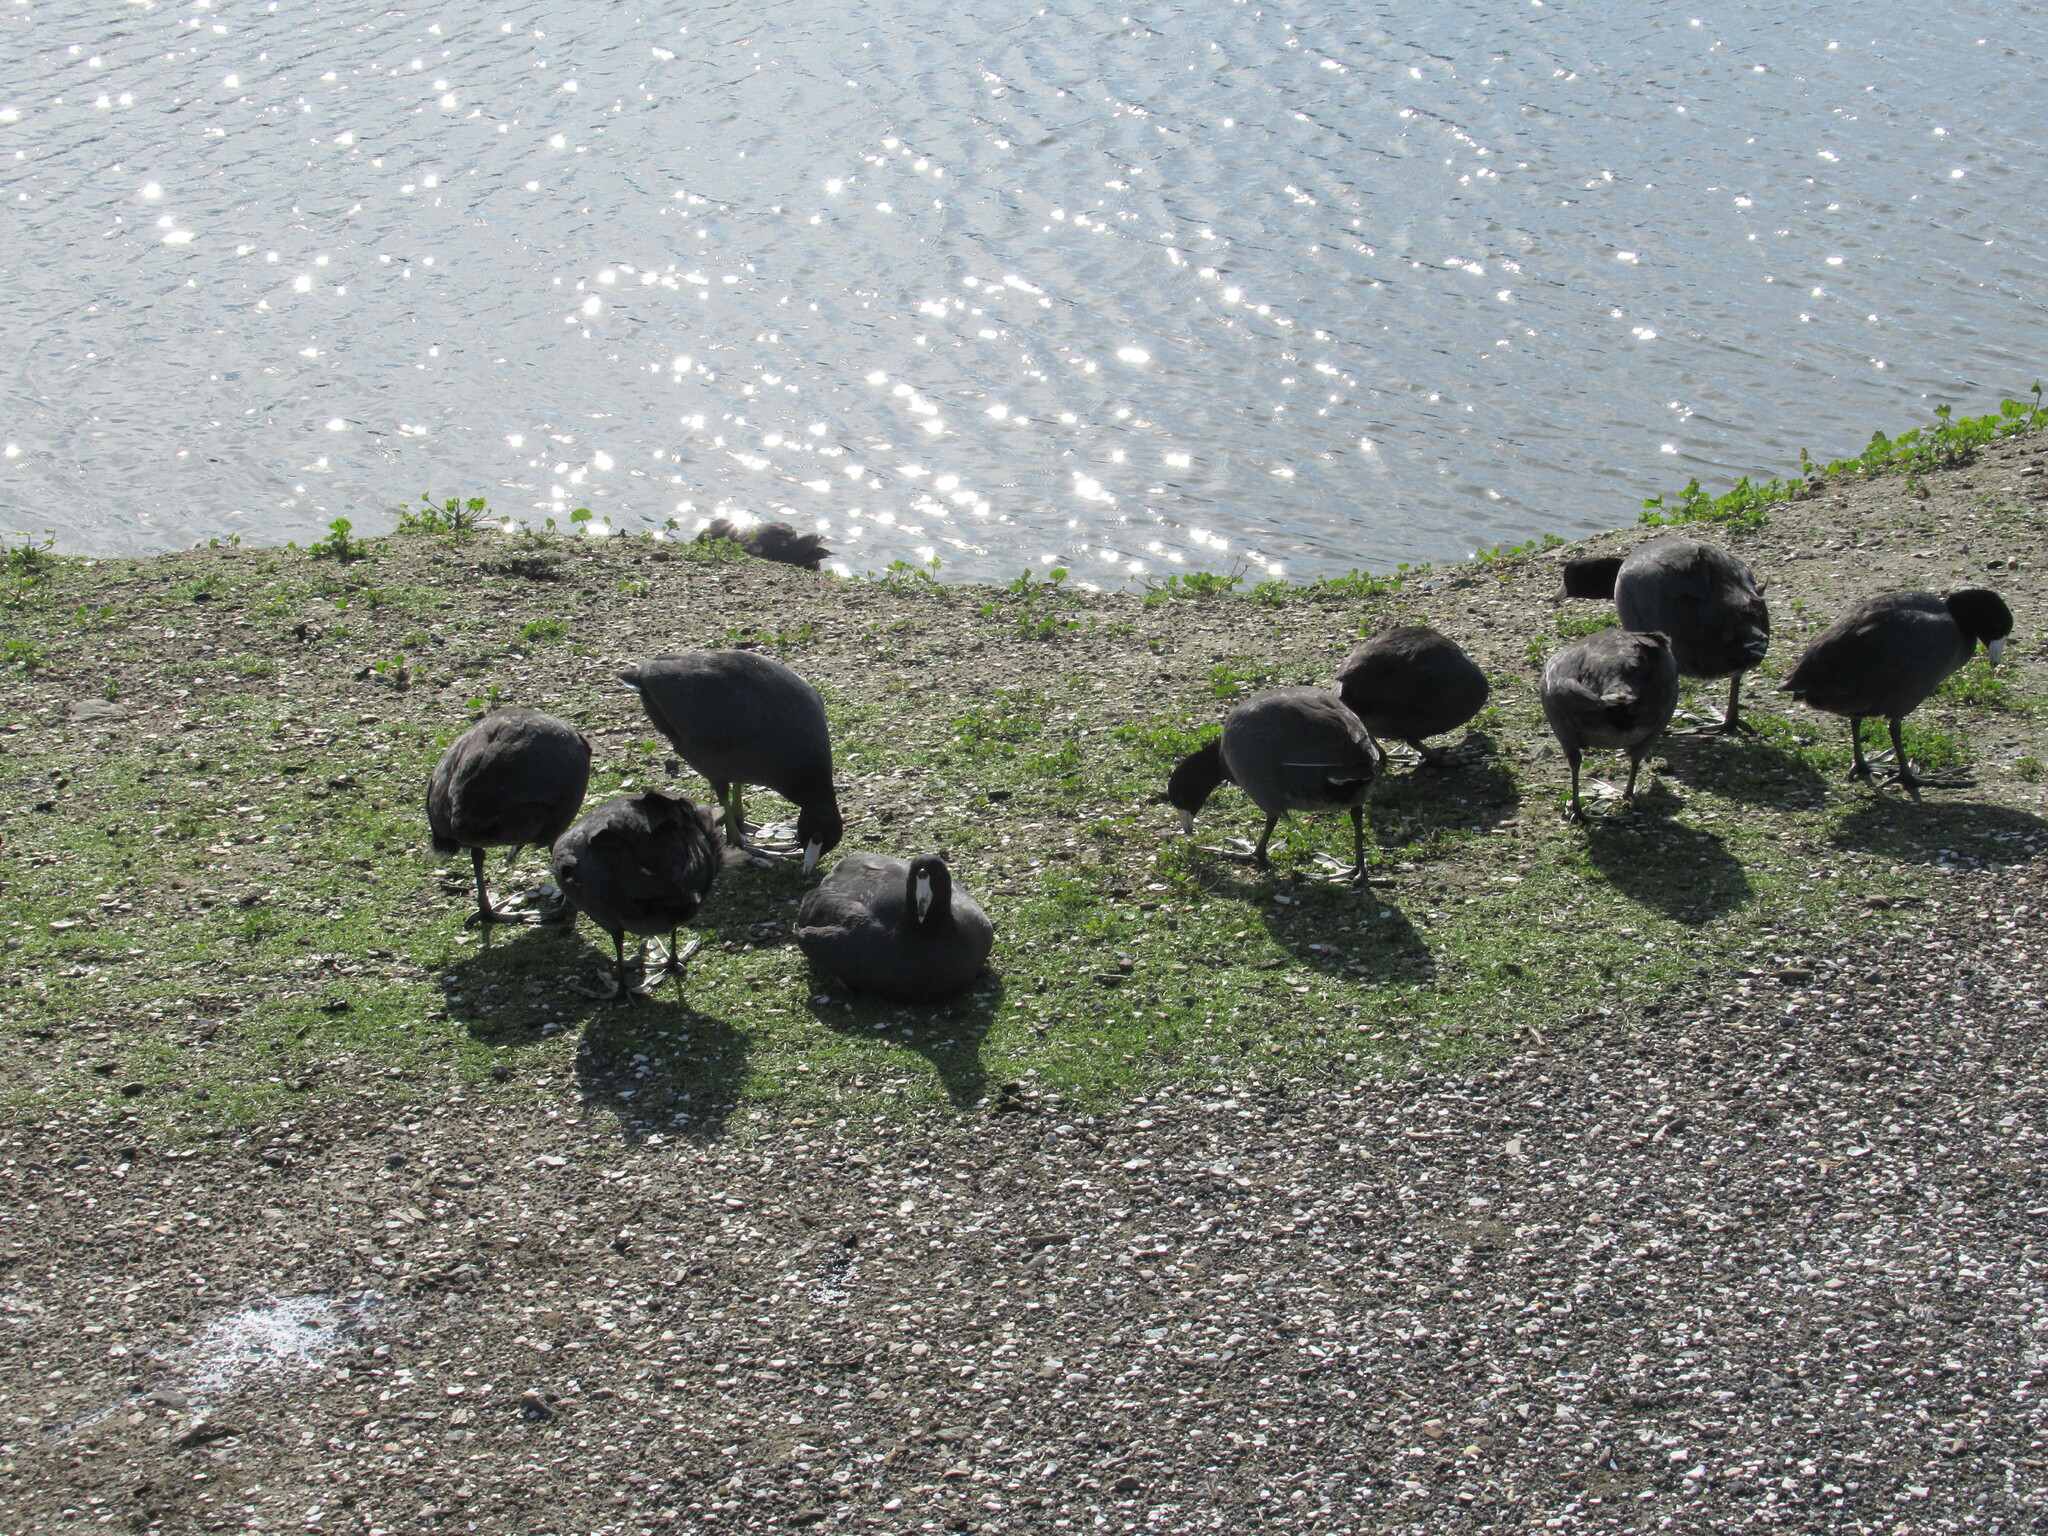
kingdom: Animalia
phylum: Chordata
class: Aves
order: Gruiformes
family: Rallidae
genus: Fulica
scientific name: Fulica americana
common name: American coot
